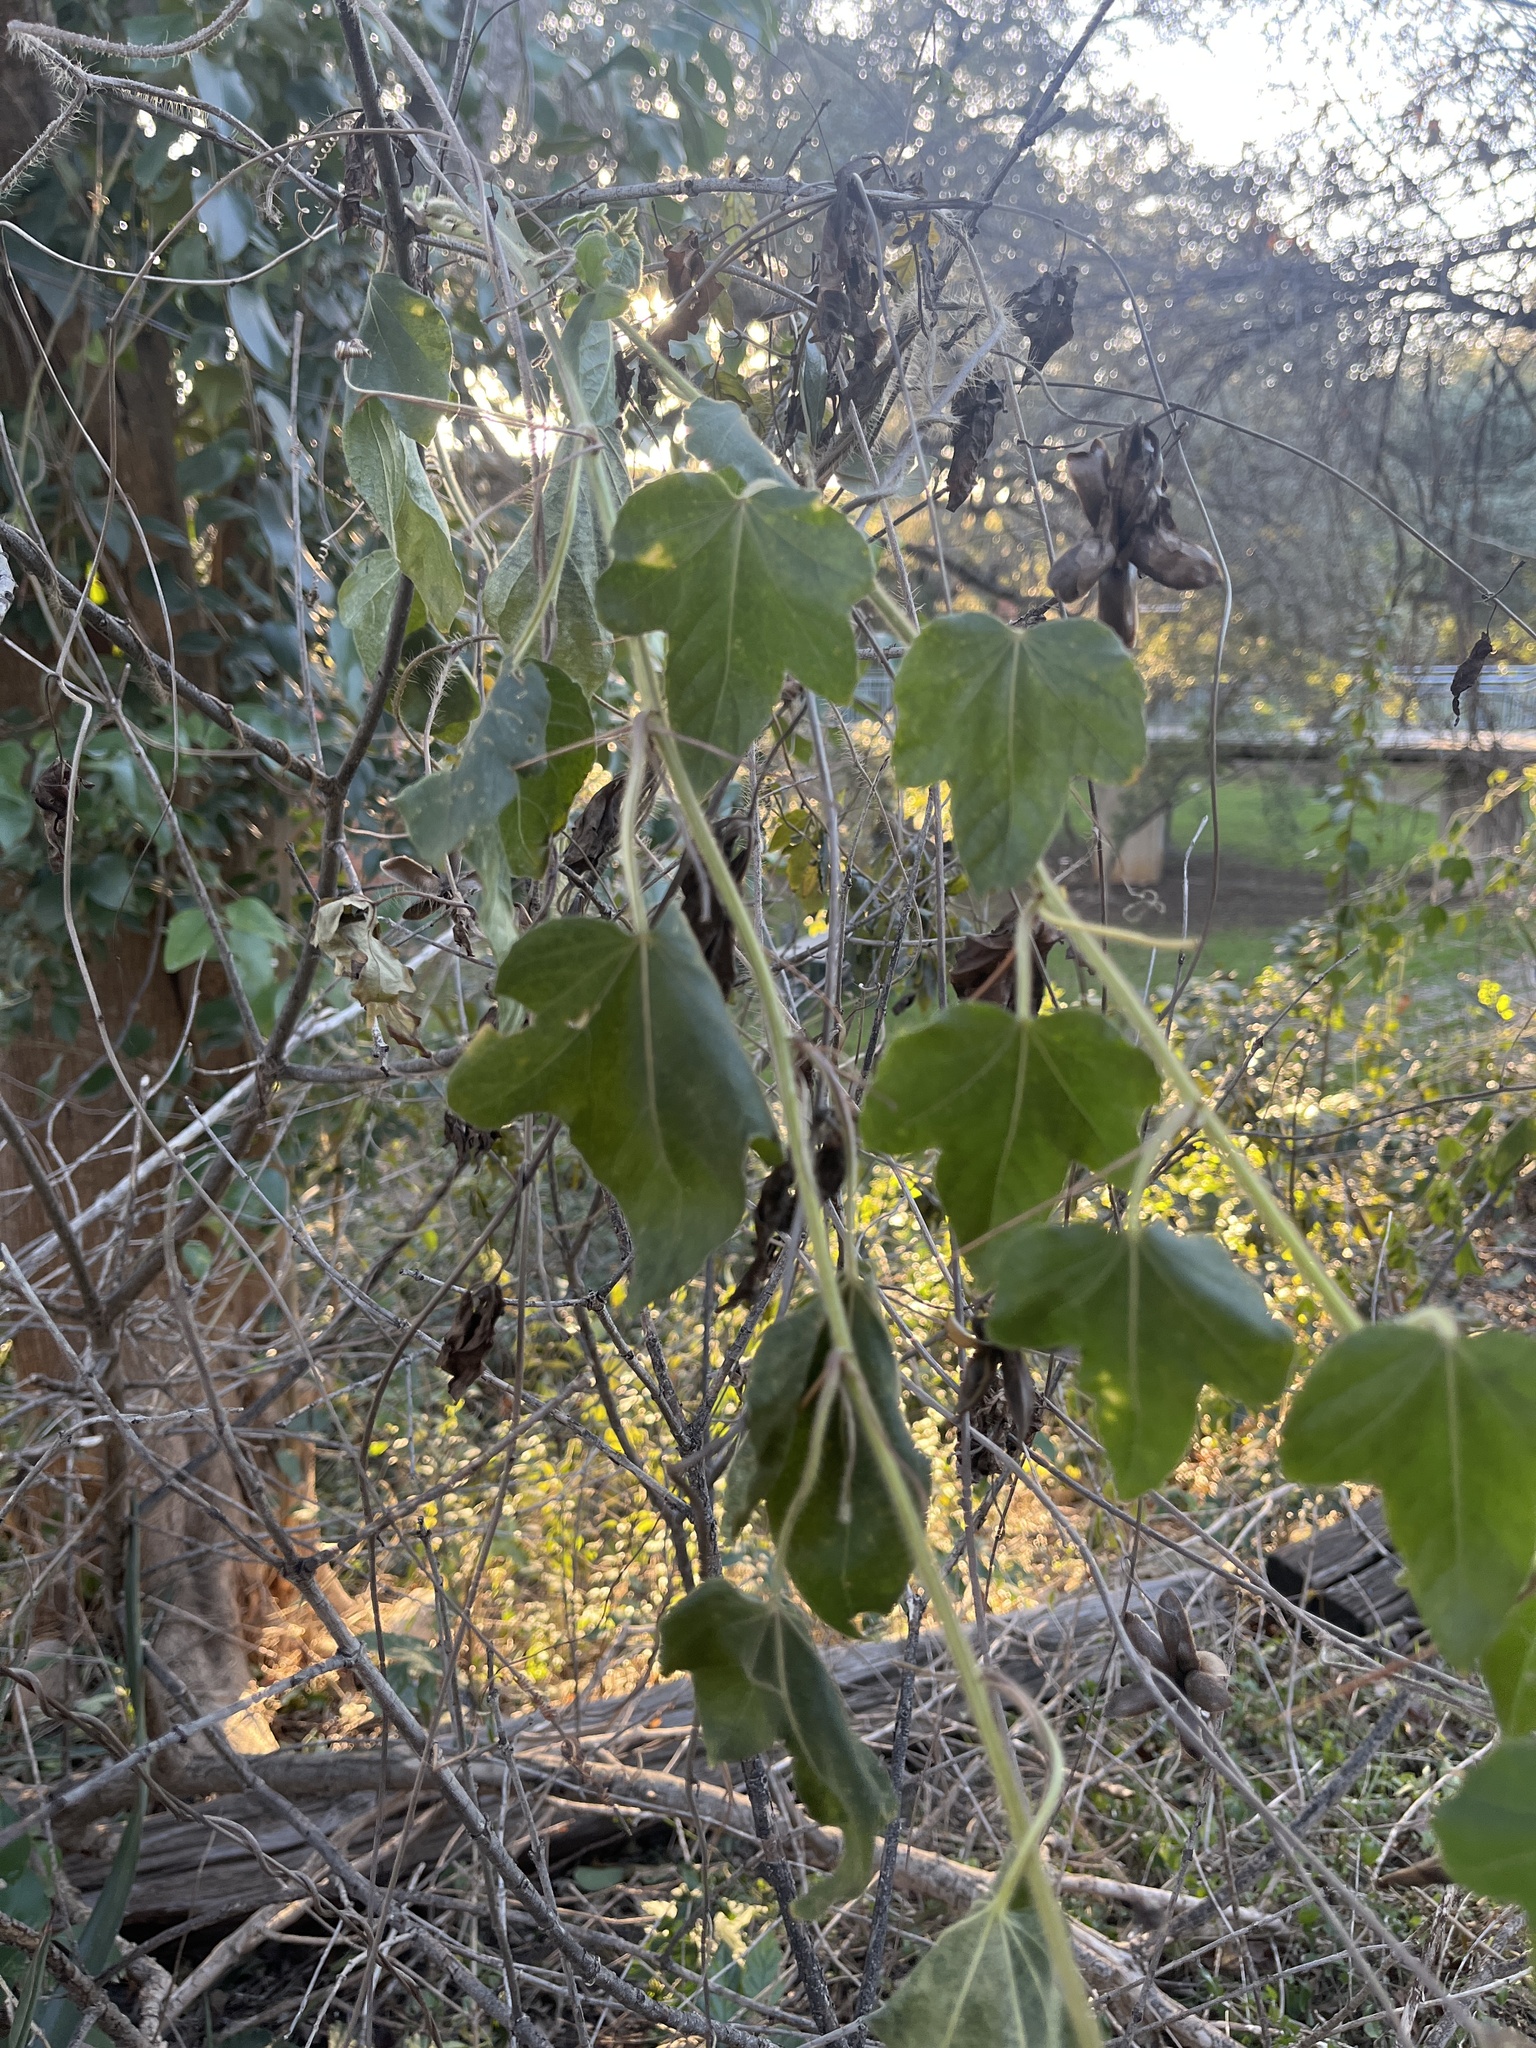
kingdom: Plantae
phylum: Tracheophyta
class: Magnoliopsida
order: Malpighiales
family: Passifloraceae
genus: Passiflora
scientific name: Passiflora
